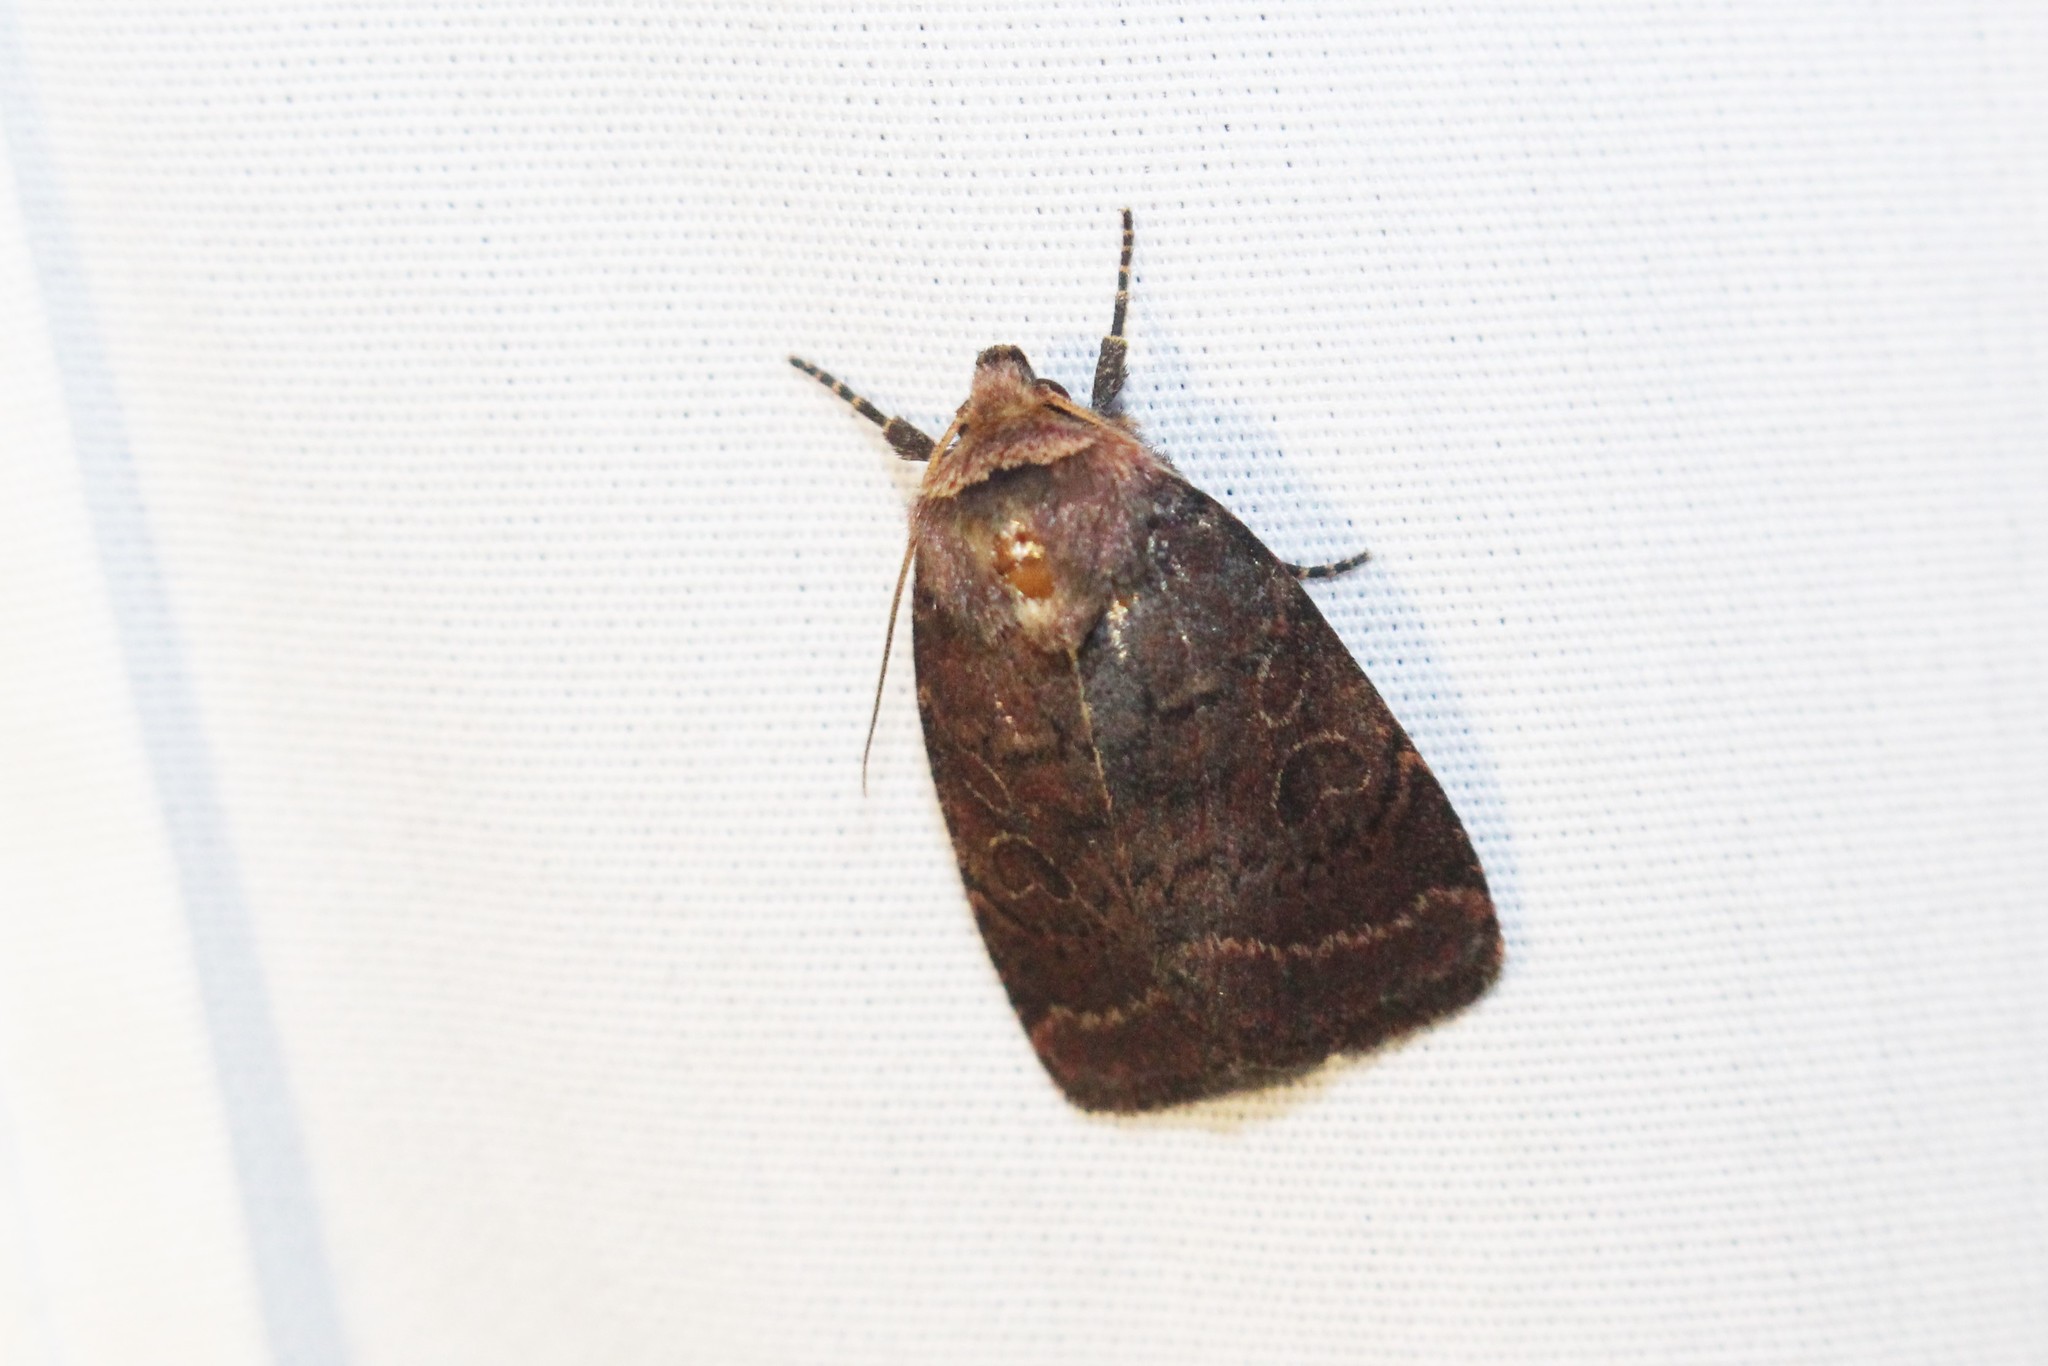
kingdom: Animalia
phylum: Arthropoda
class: Insecta
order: Lepidoptera
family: Noctuidae
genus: Orthodes
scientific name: Orthodes cynica
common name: Cynical quaker
